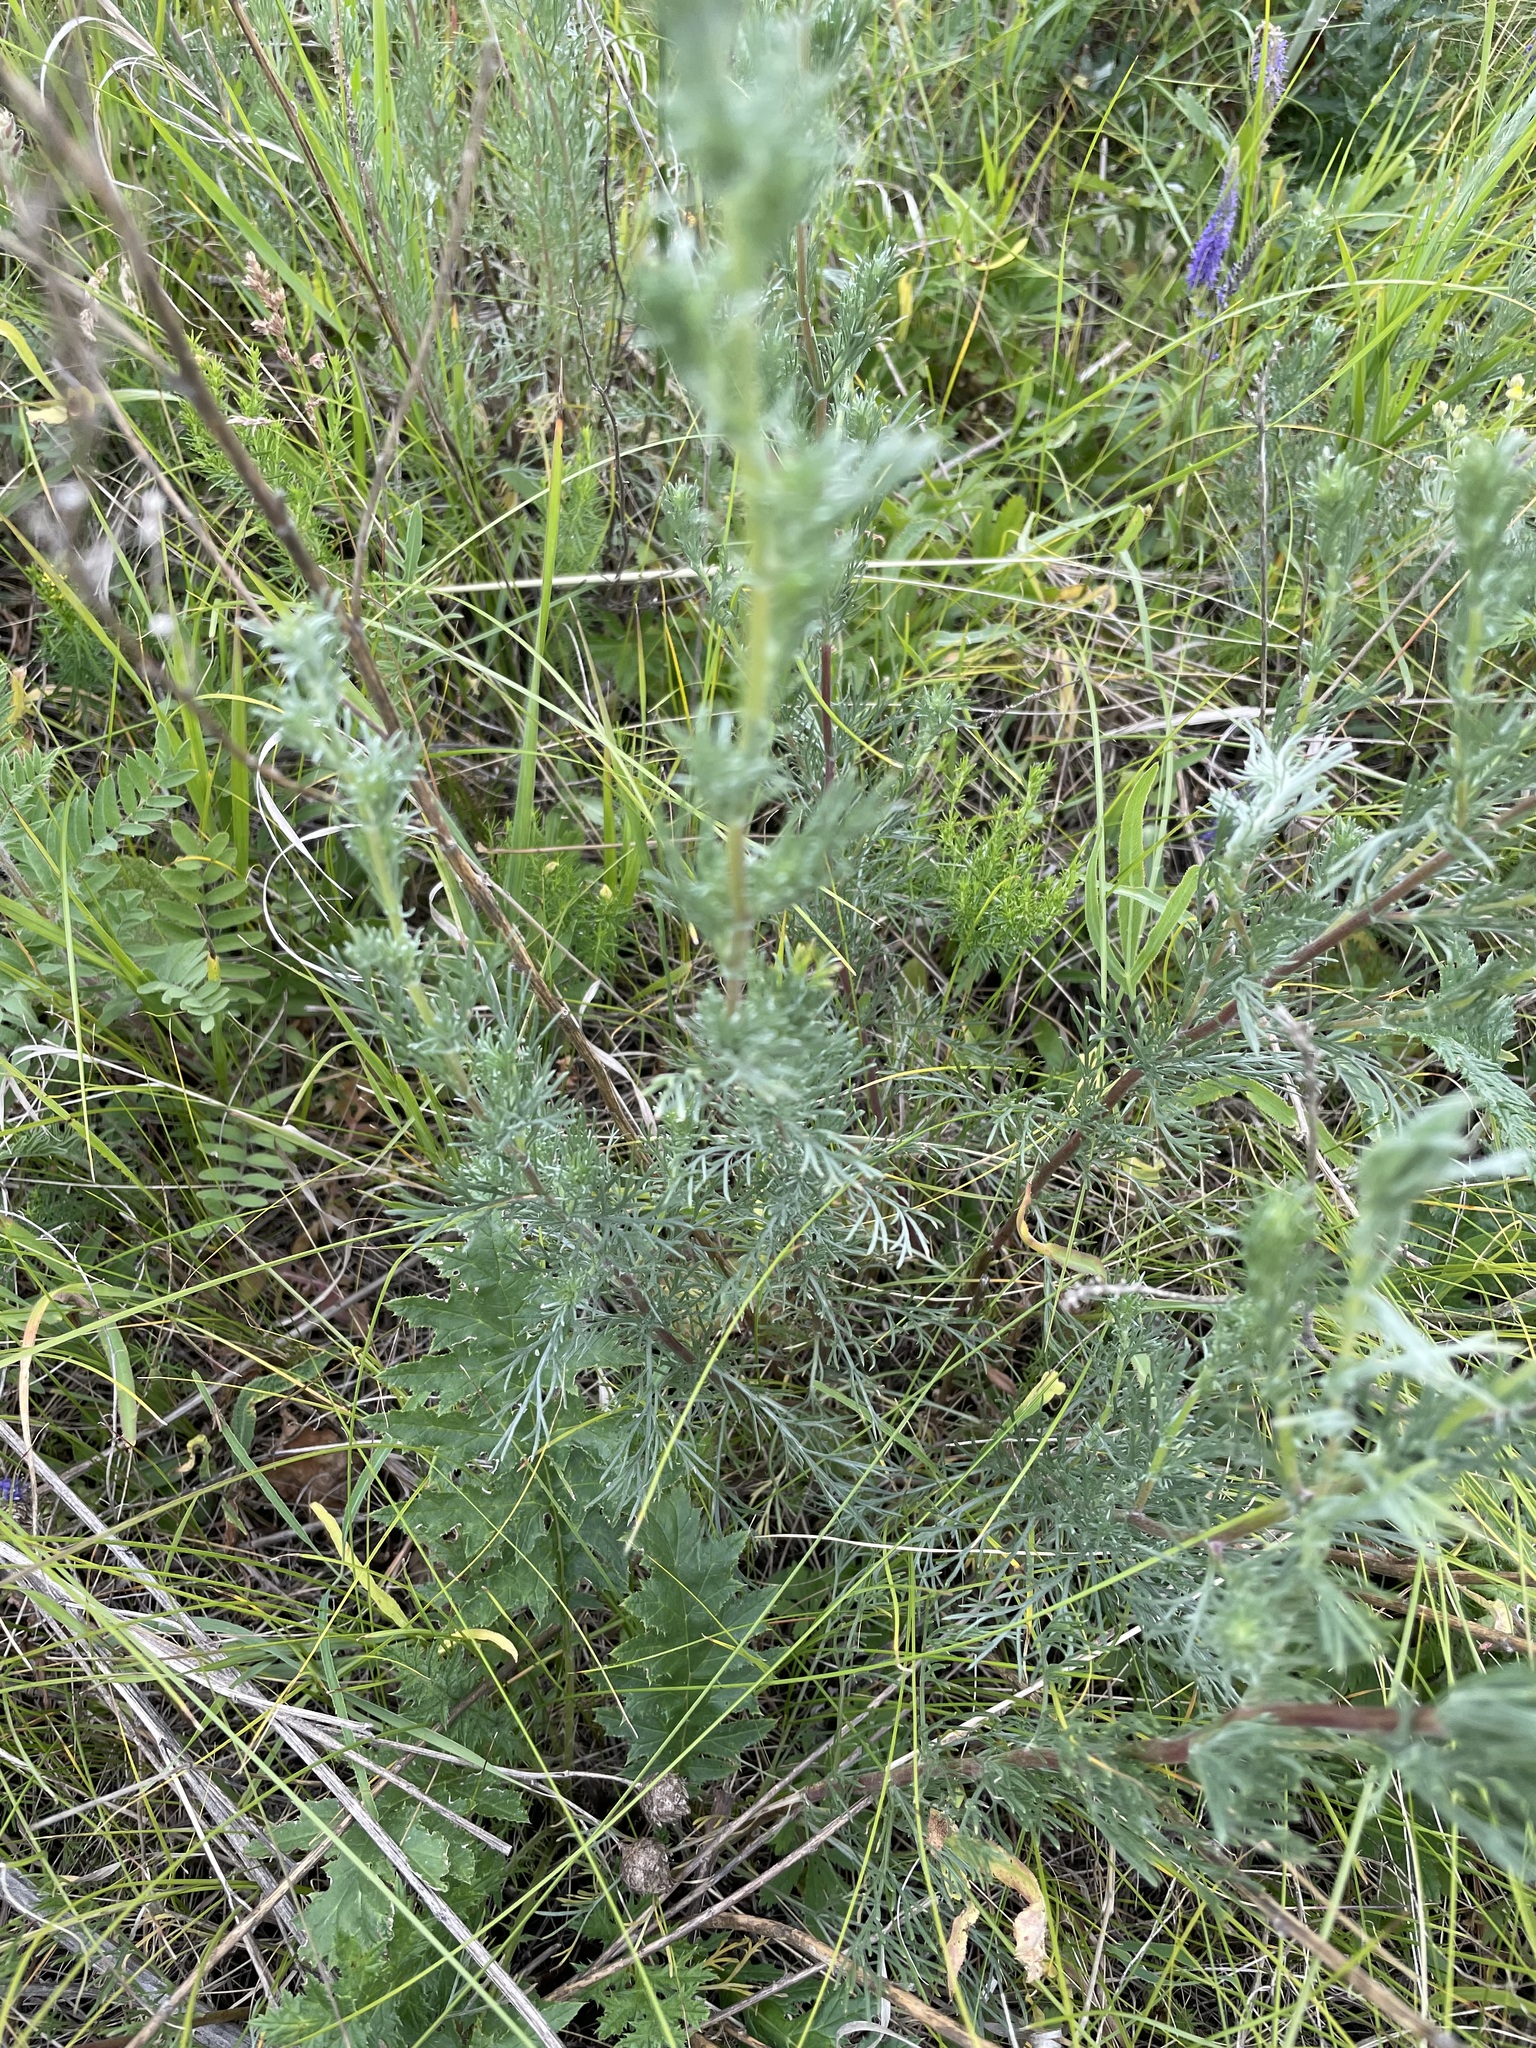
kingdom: Plantae
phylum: Tracheophyta
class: Magnoliopsida
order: Asterales
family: Asteraceae
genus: Artemisia
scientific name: Artemisia campestris
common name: Field wormwood
